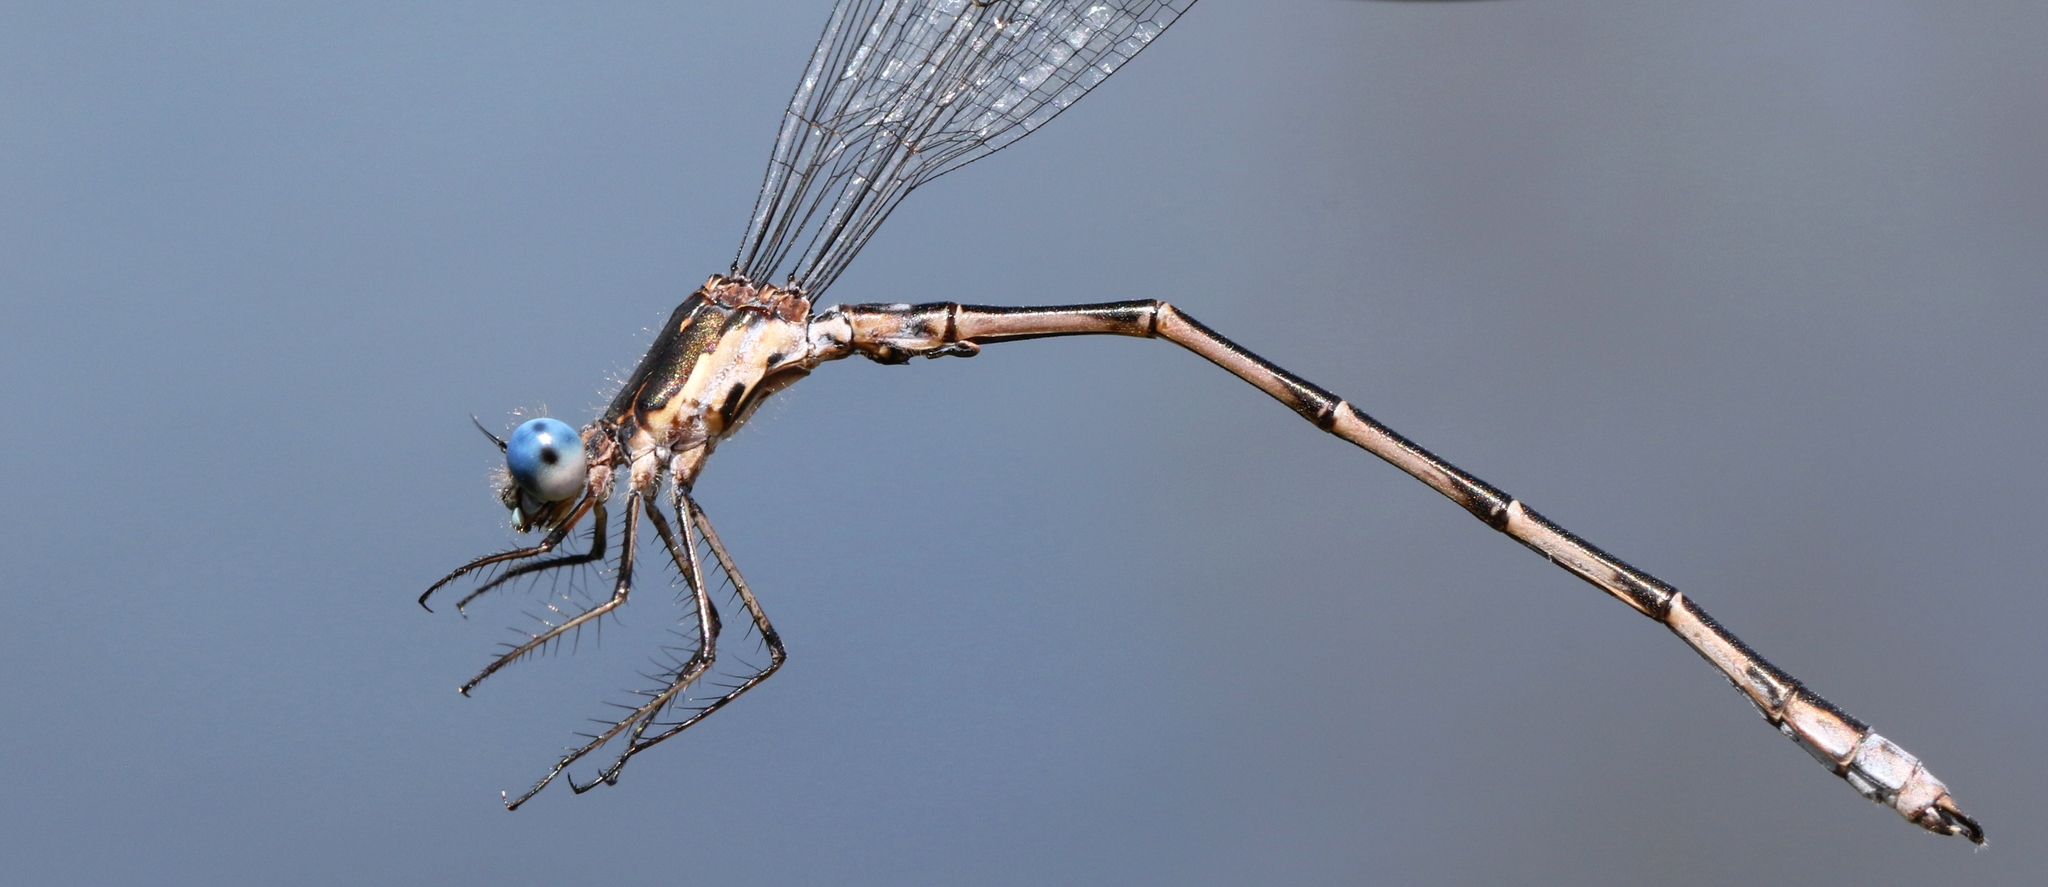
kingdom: Animalia
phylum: Arthropoda
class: Insecta
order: Odonata
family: Lestidae
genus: Lestes
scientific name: Lestes congener
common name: Spotted spreadwing
